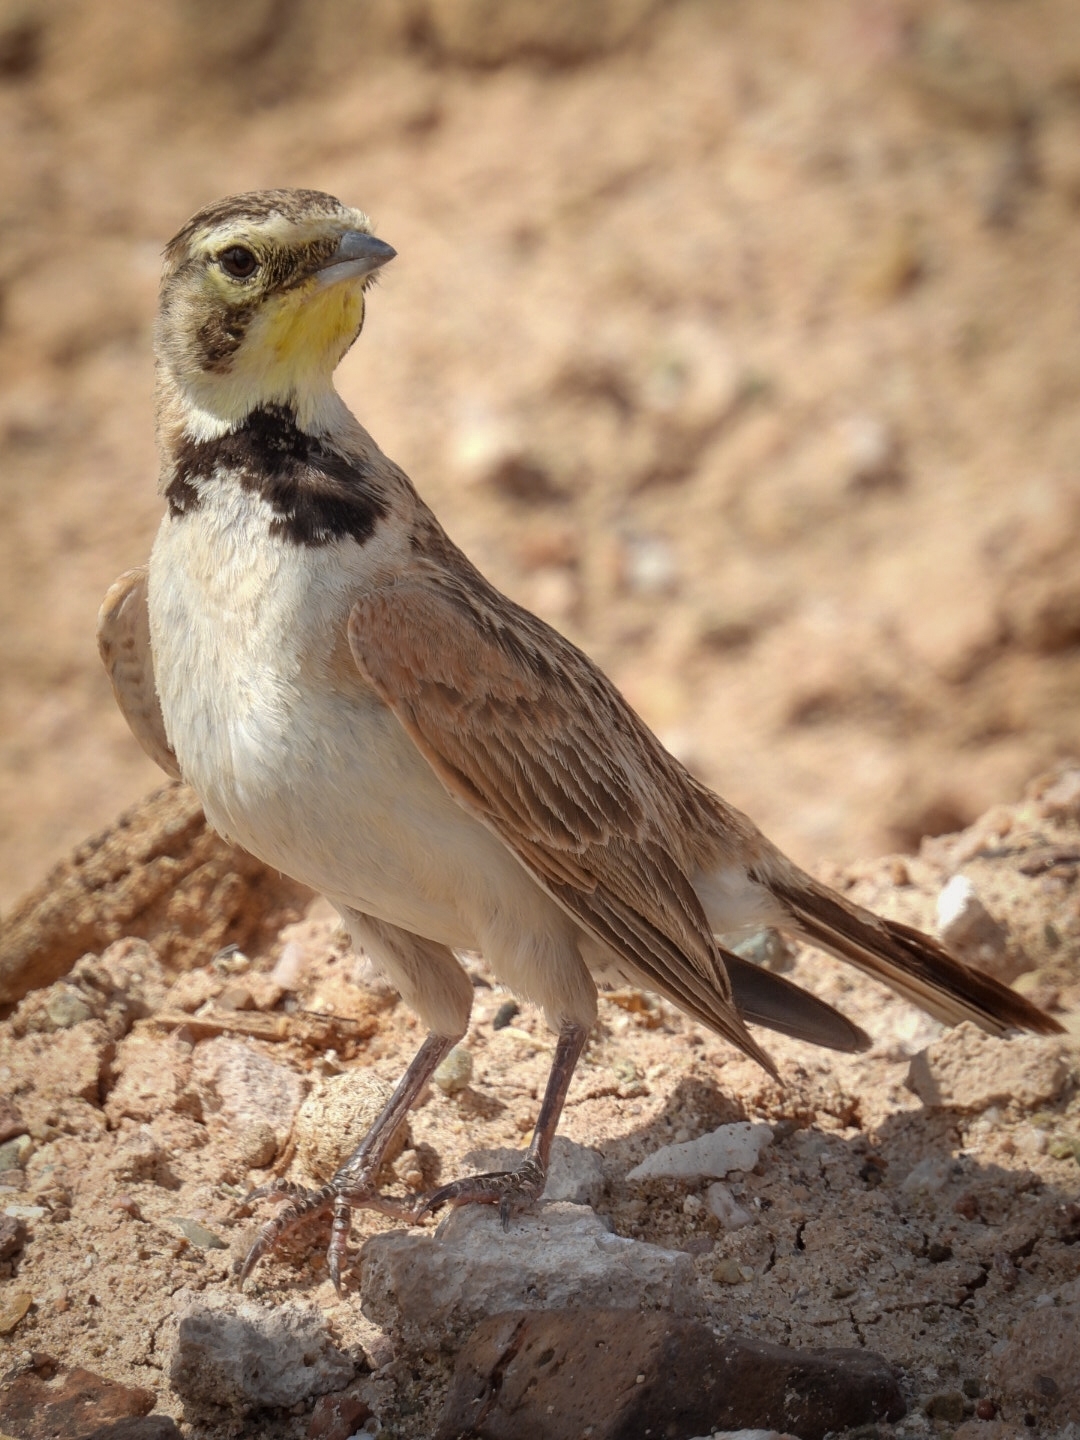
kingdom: Animalia
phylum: Chordata
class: Aves
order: Passeriformes
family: Alaudidae
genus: Eremophila
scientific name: Eremophila alpestris
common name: Horned lark
